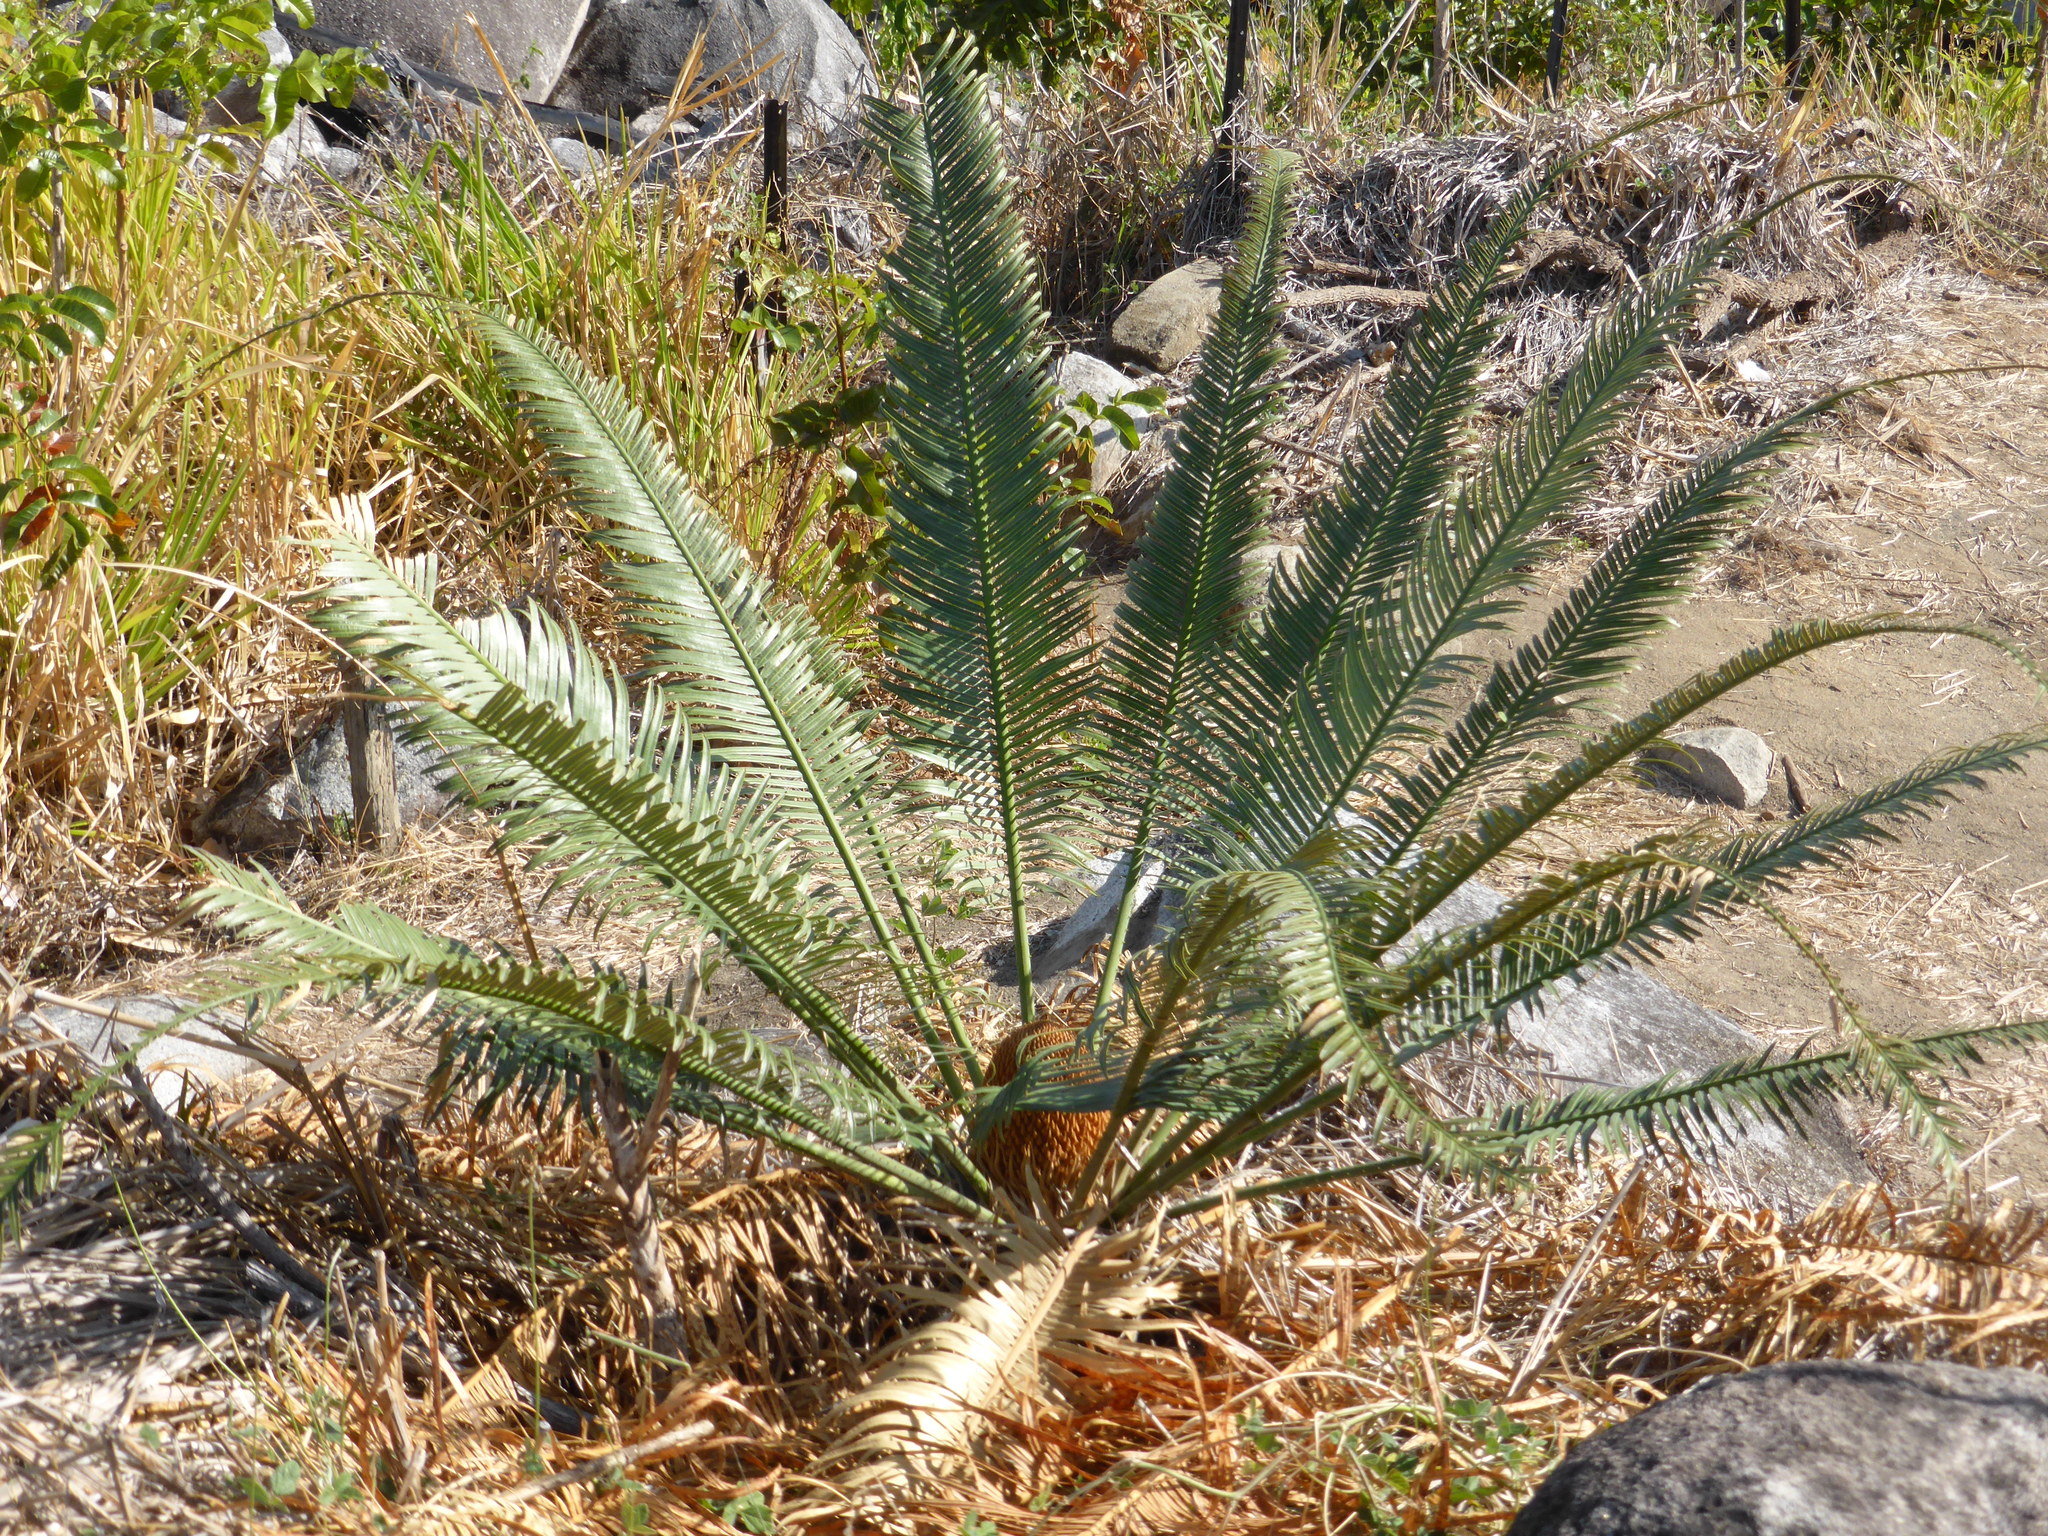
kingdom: Plantae
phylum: Tracheophyta
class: Cycadopsida
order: Cycadales
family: Cycadaceae
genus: Cycas
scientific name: Cycas media
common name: Queensland cycas
